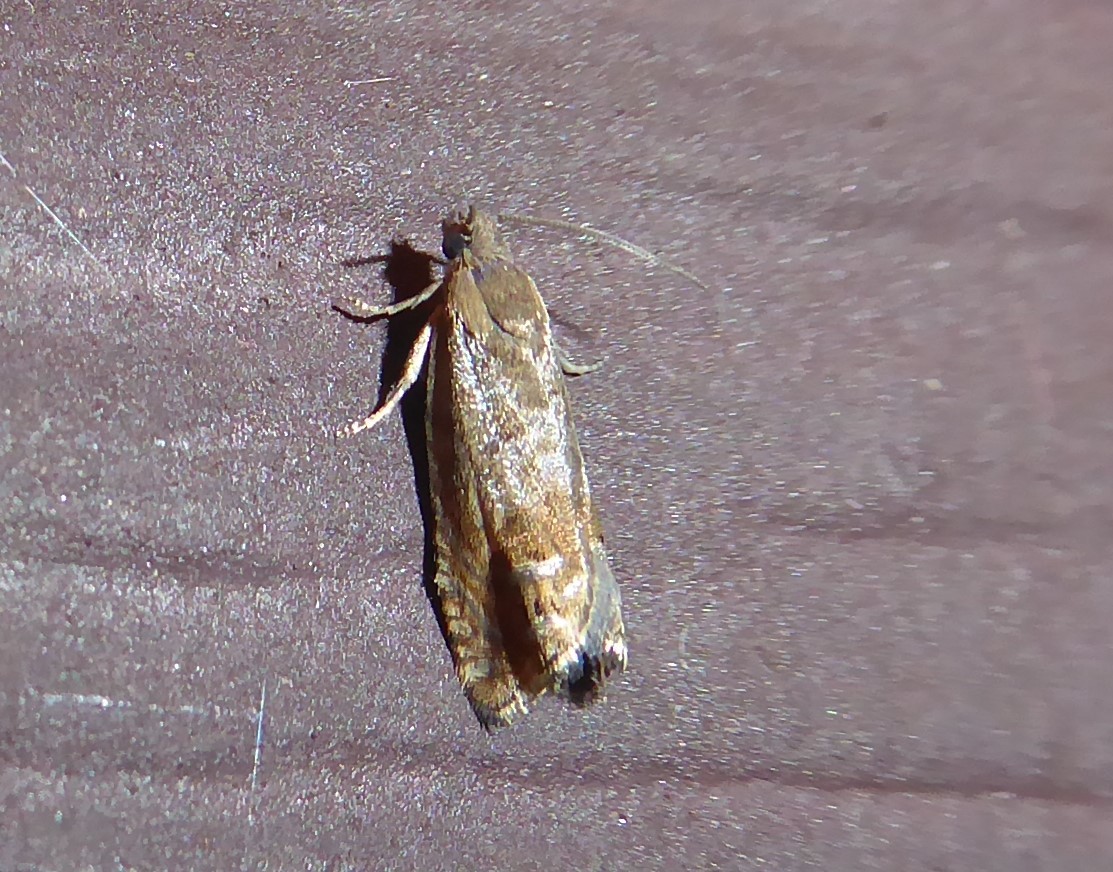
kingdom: Animalia
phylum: Arthropoda
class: Insecta
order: Lepidoptera
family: Tortricidae
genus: Cydia
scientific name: Cydia succedana
